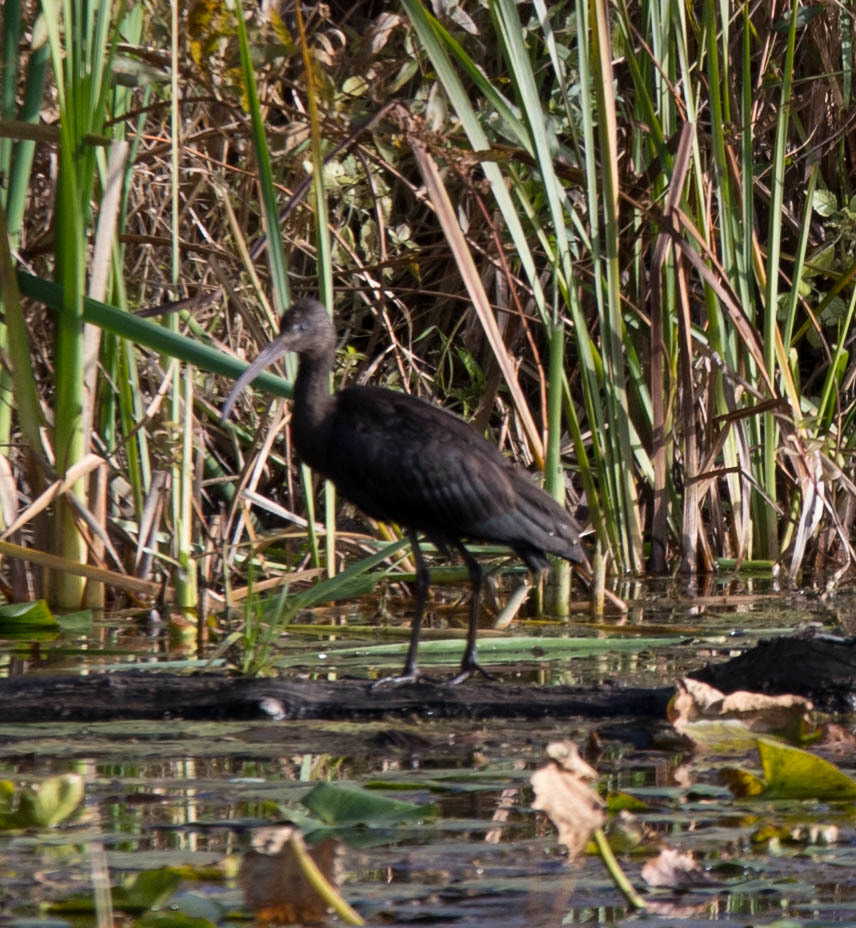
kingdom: Animalia
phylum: Chordata
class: Aves
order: Pelecaniformes
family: Threskiornithidae
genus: Plegadis
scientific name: Plegadis falcinellus
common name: Glossy ibis
